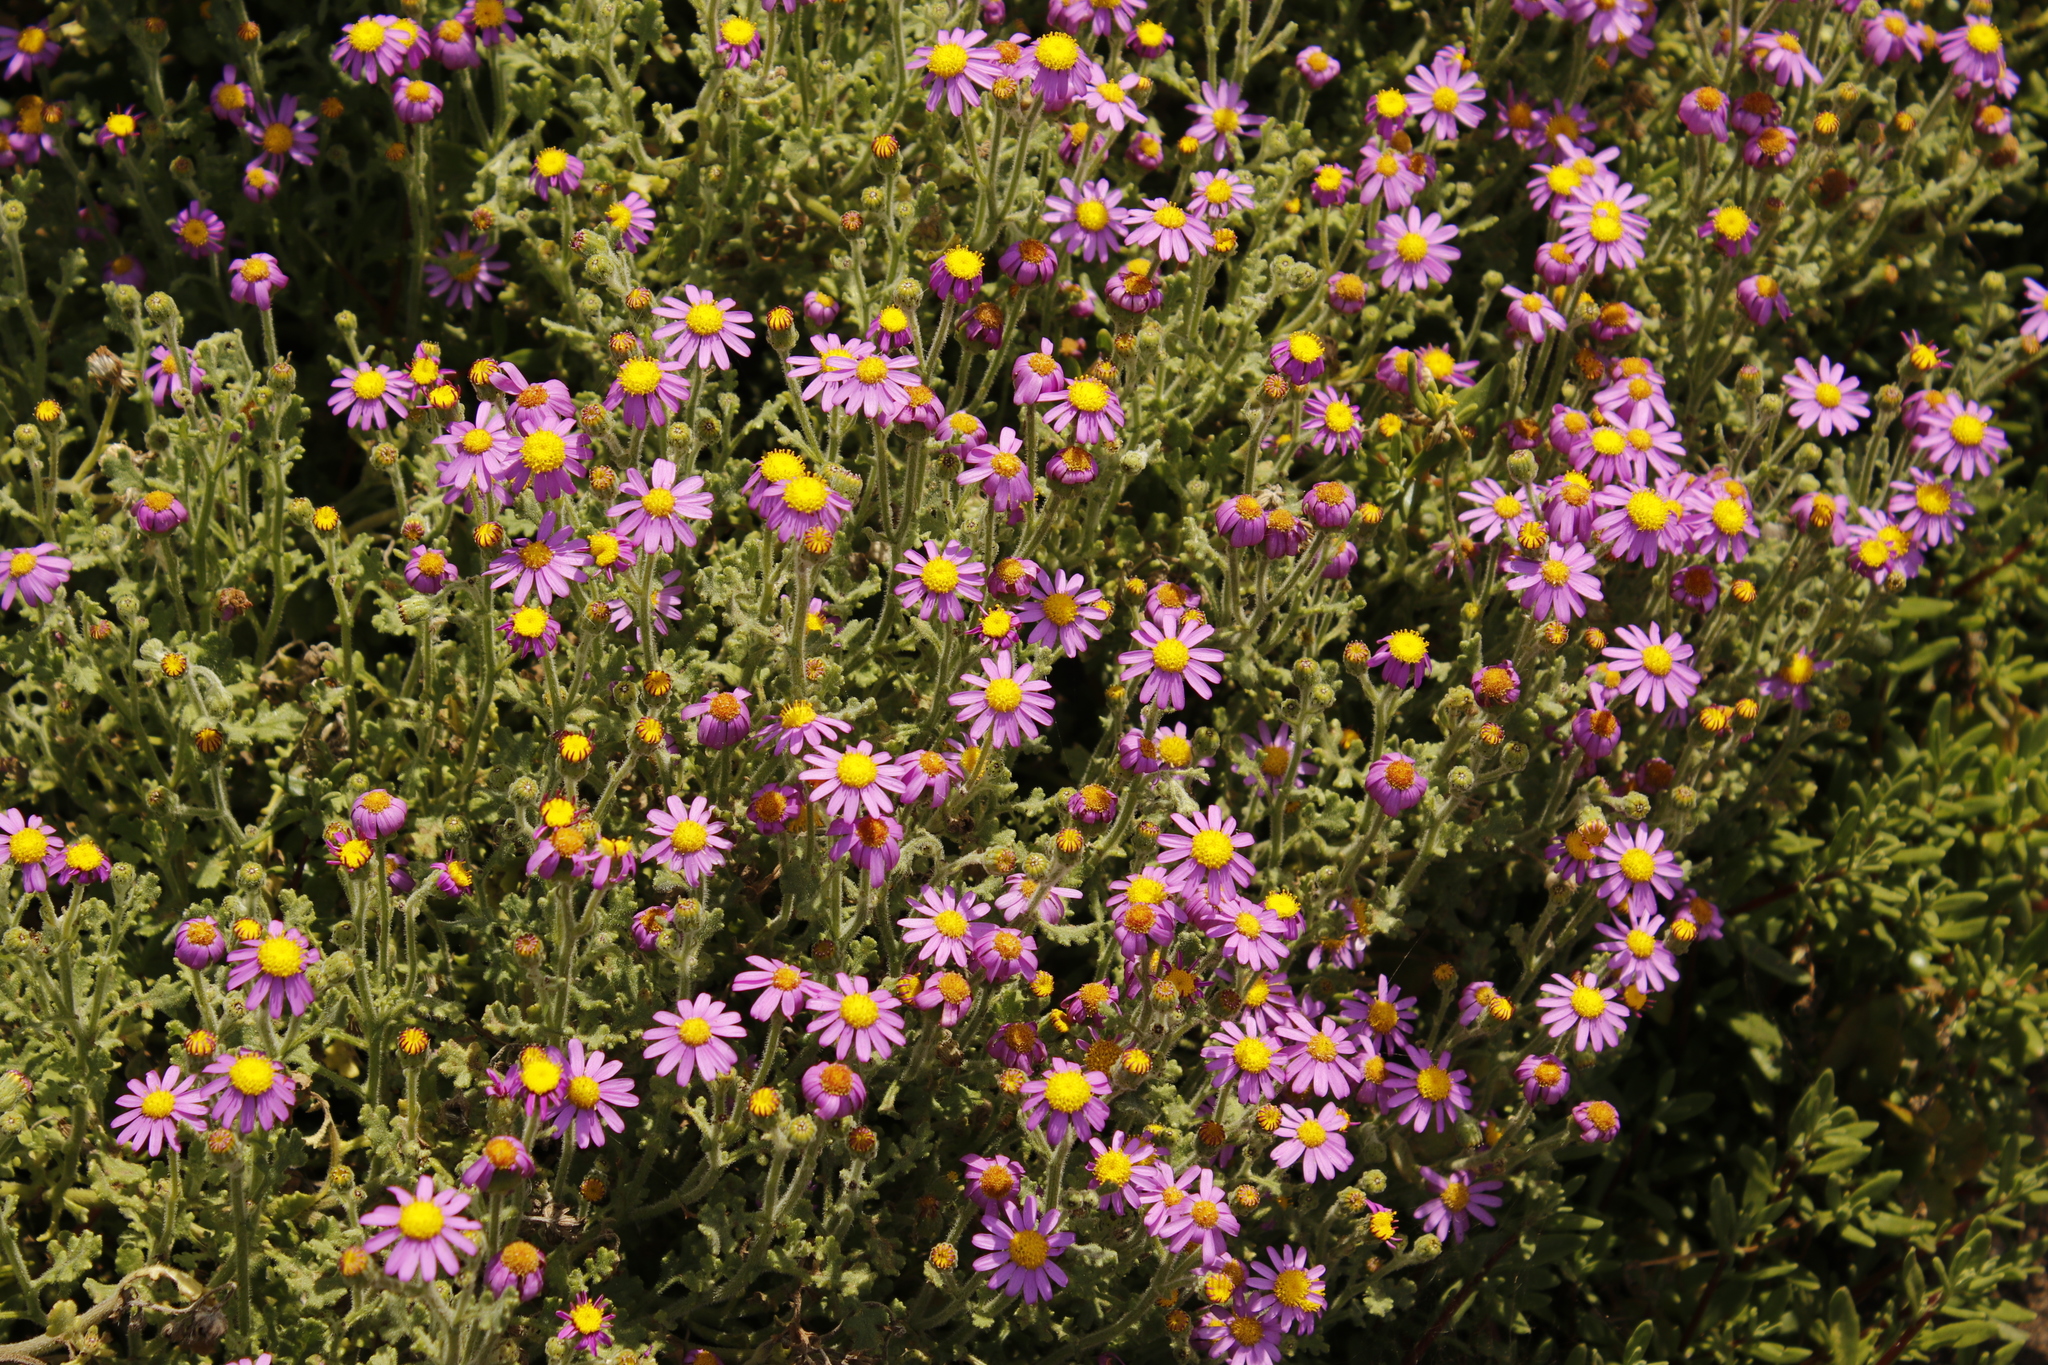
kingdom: Plantae
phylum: Tracheophyta
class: Magnoliopsida
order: Asterales
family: Asteraceae
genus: Senecio
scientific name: Senecio elegans
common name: Purple groundsel
